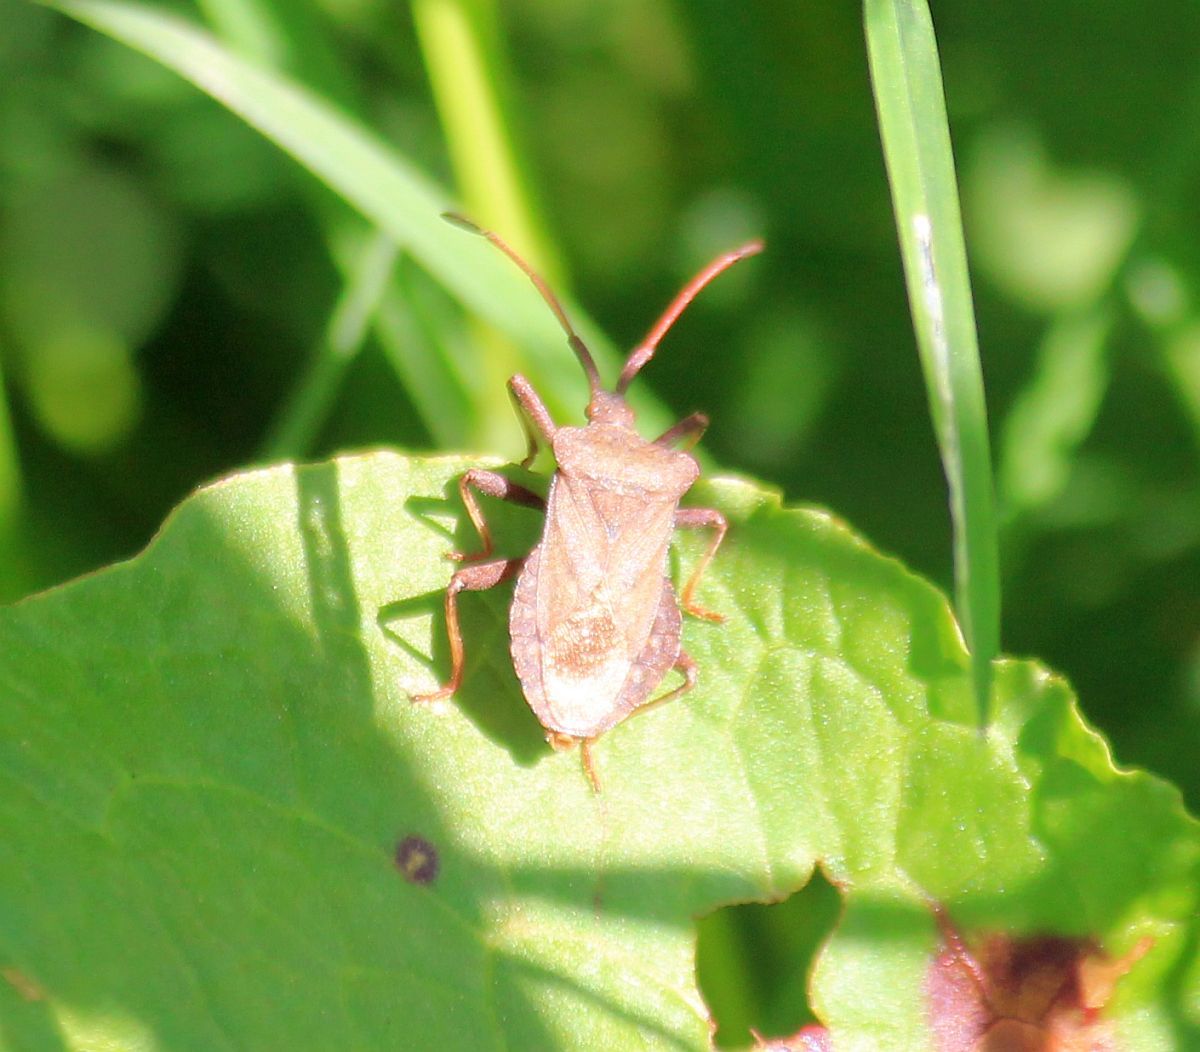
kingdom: Animalia
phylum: Arthropoda
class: Insecta
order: Hemiptera
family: Coreidae
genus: Coreus
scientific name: Coreus marginatus
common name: Dock bug
